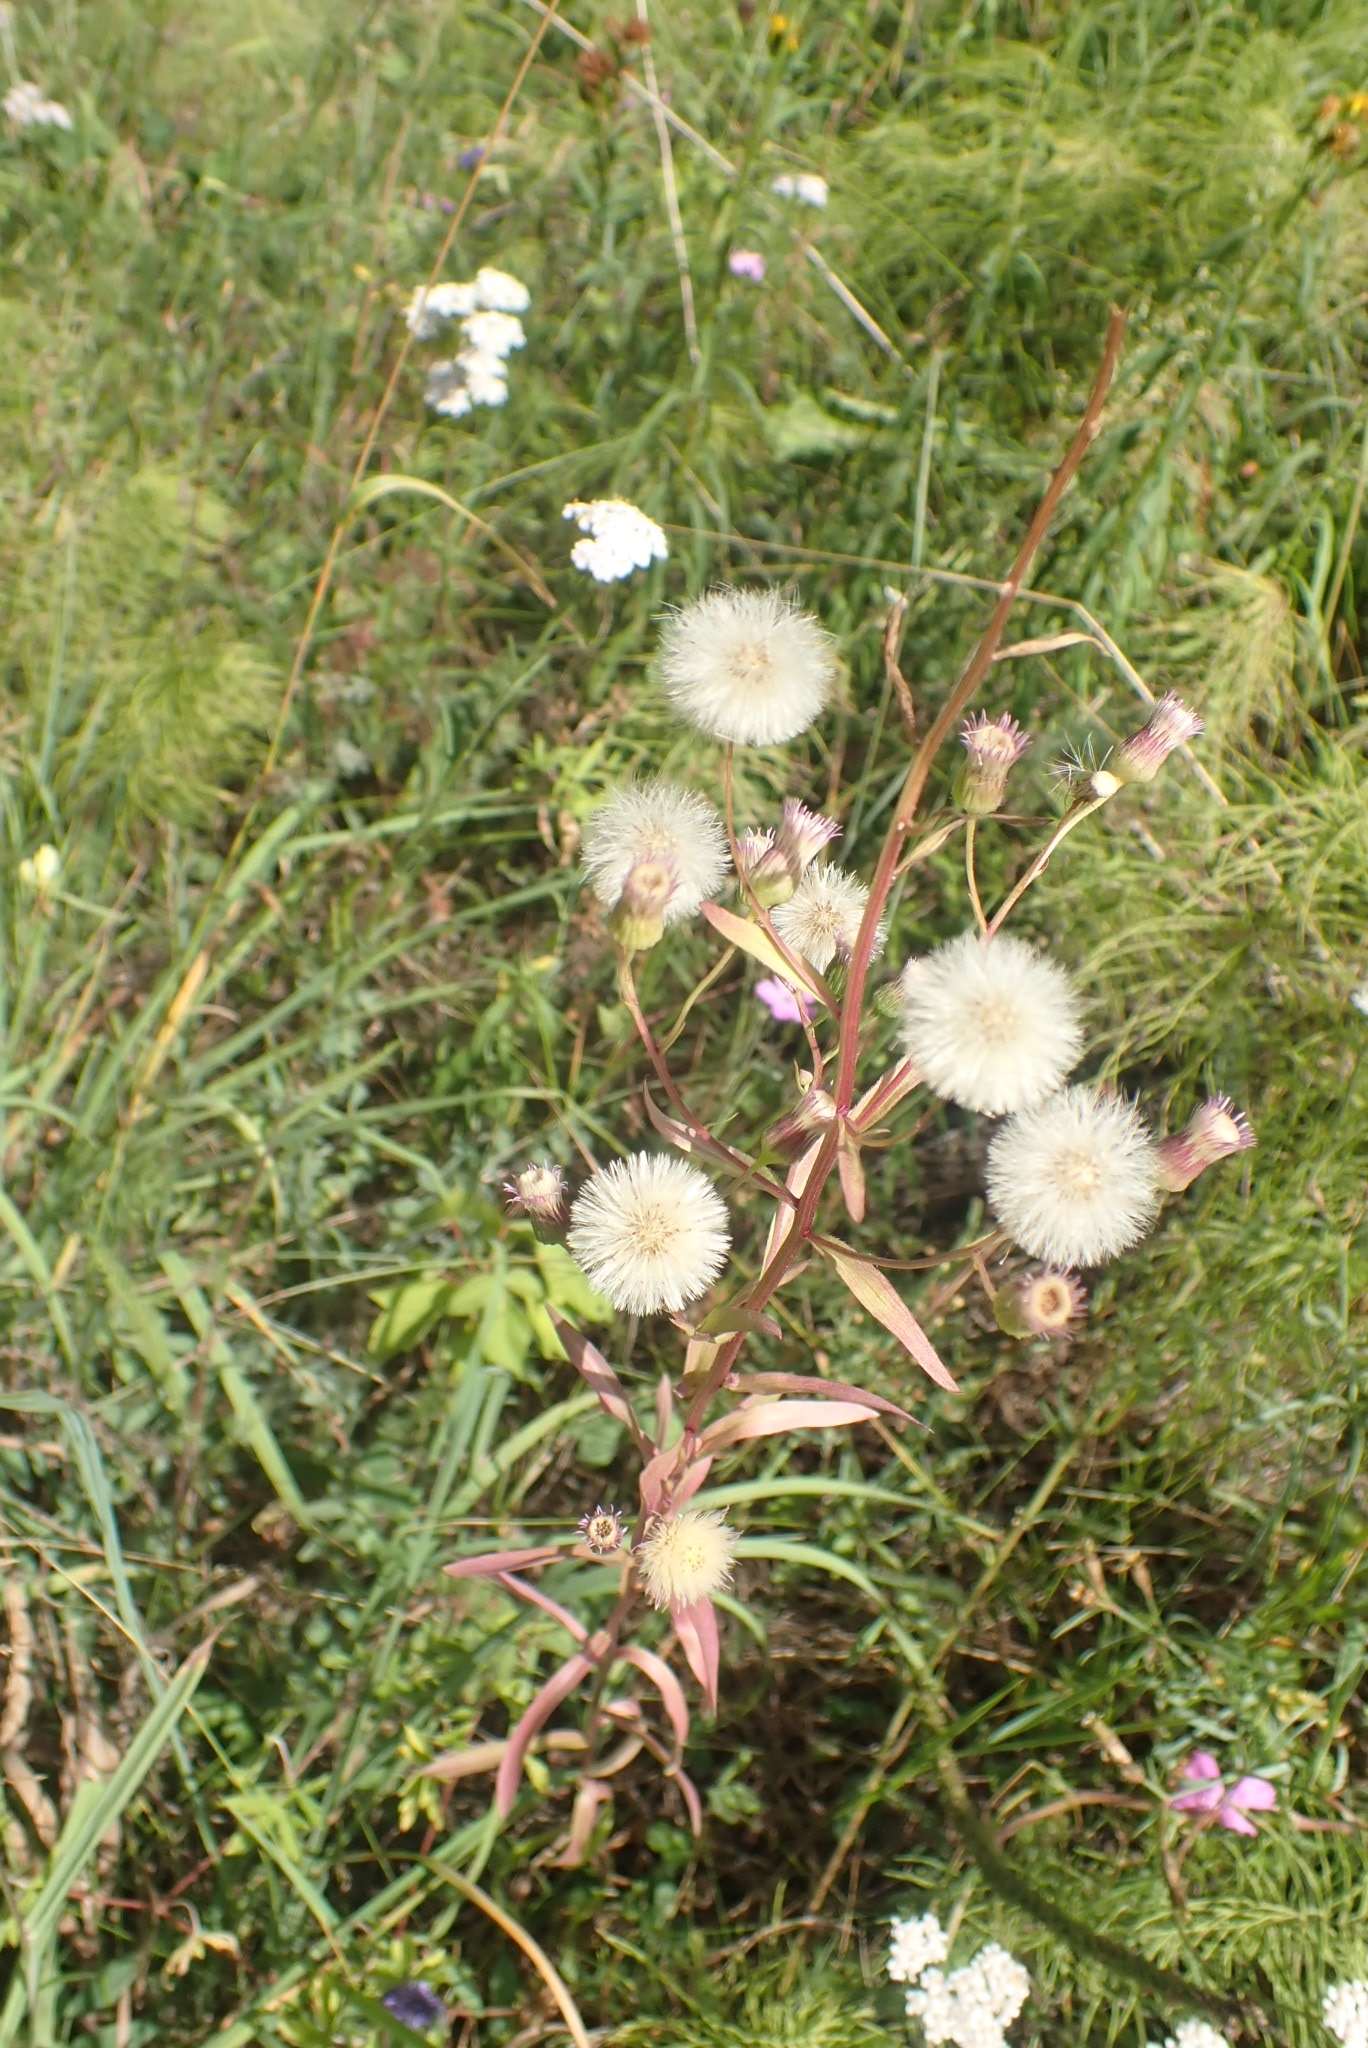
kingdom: Plantae
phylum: Tracheophyta
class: Magnoliopsida
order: Asterales
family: Asteraceae
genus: Erigeron
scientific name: Erigeron acris
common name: Blue fleabane
